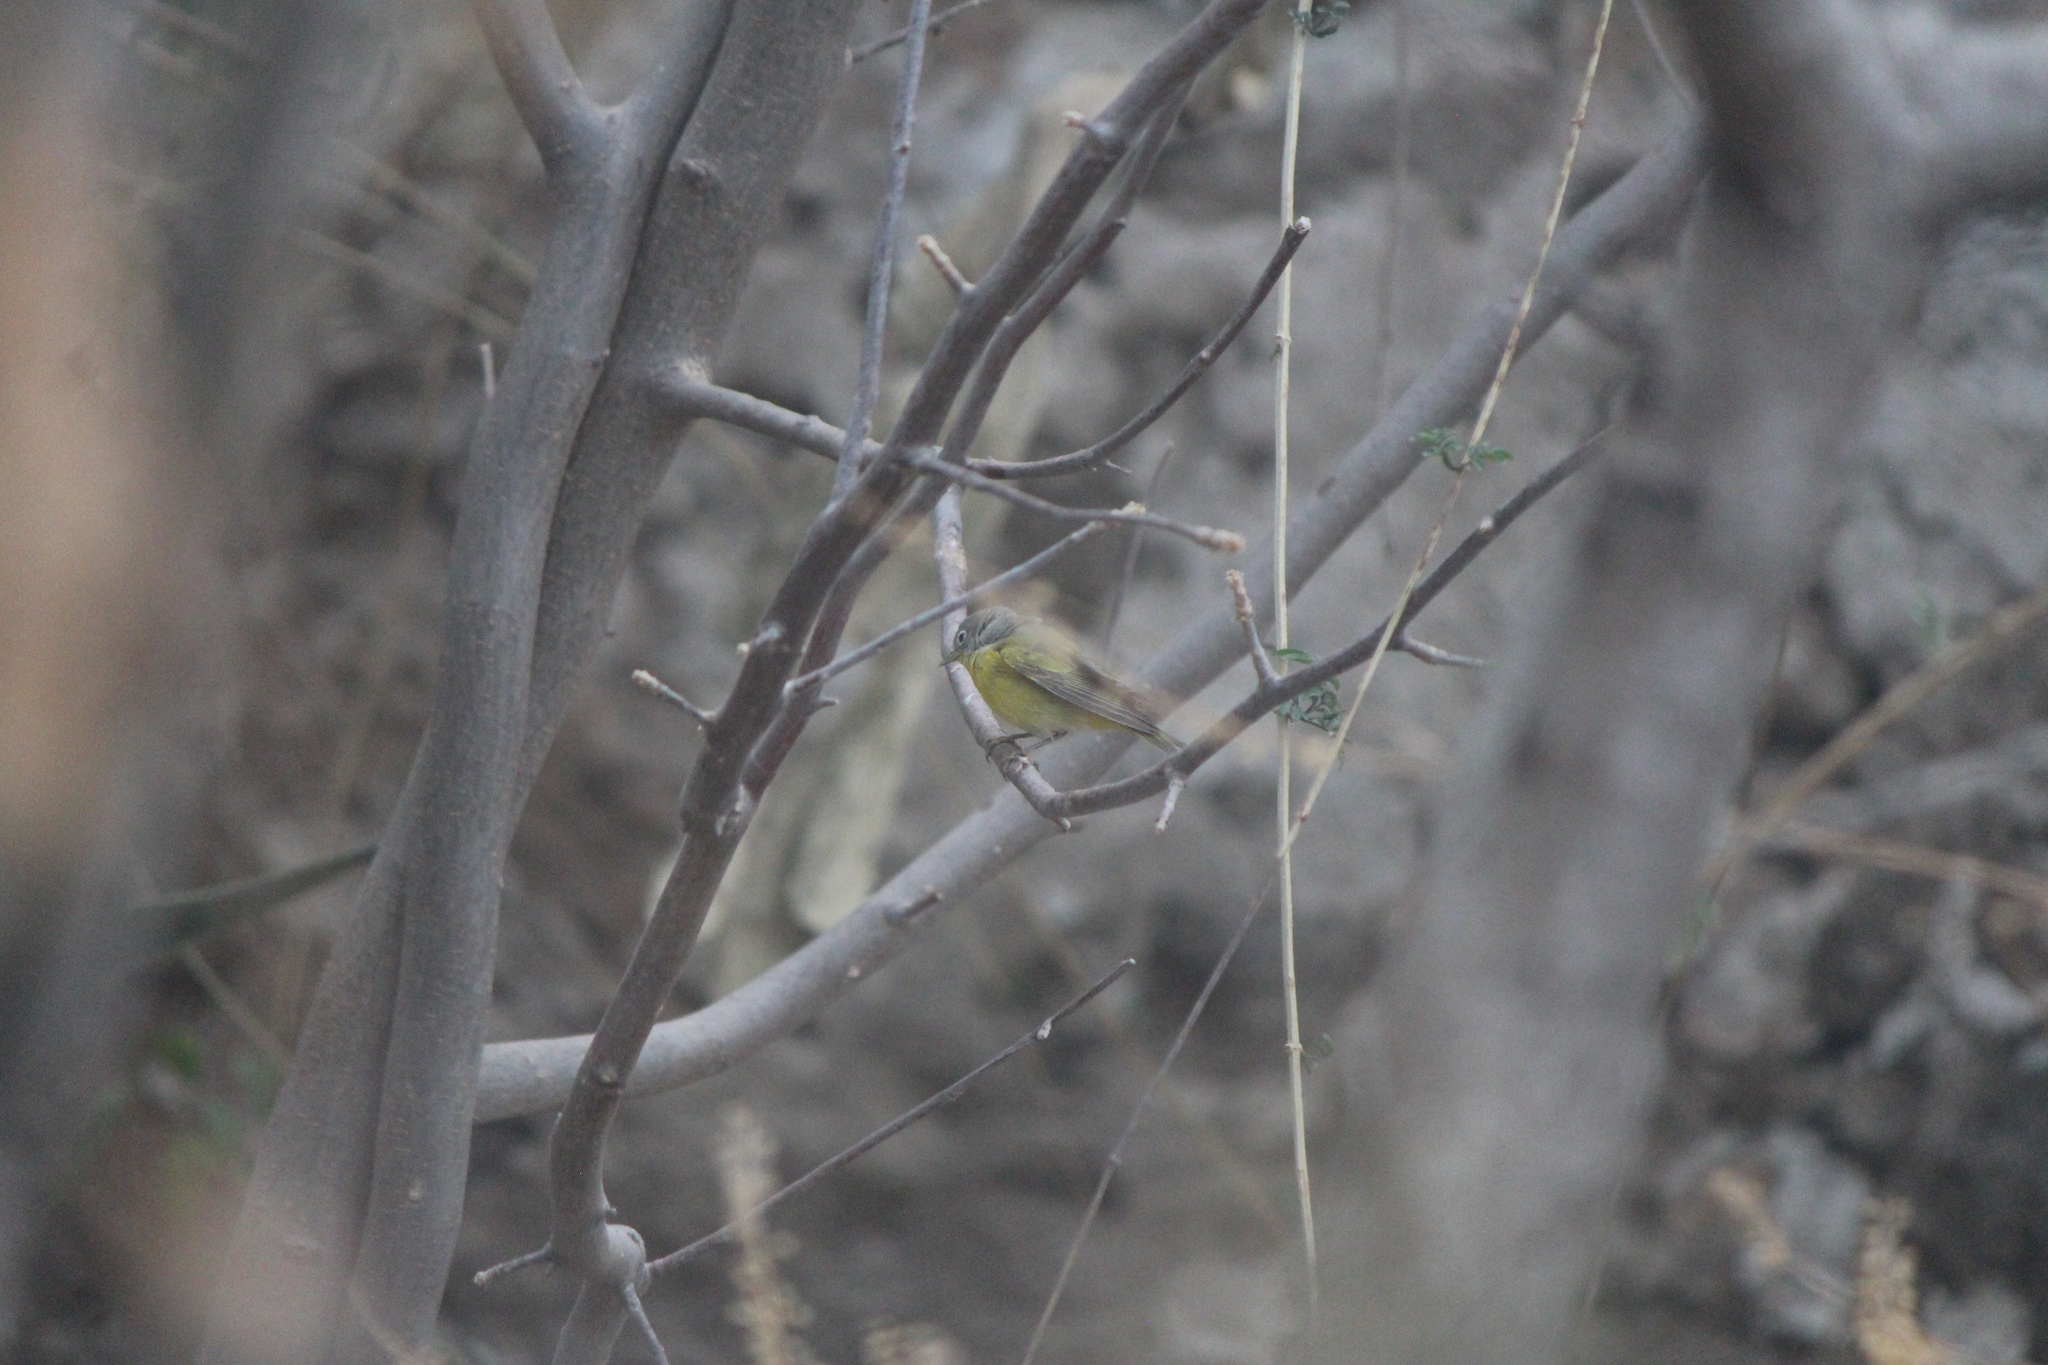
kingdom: Animalia
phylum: Chordata
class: Aves
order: Passeriformes
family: Parulidae
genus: Leiothlypis
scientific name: Leiothlypis ruficapilla
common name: Nashville warbler
